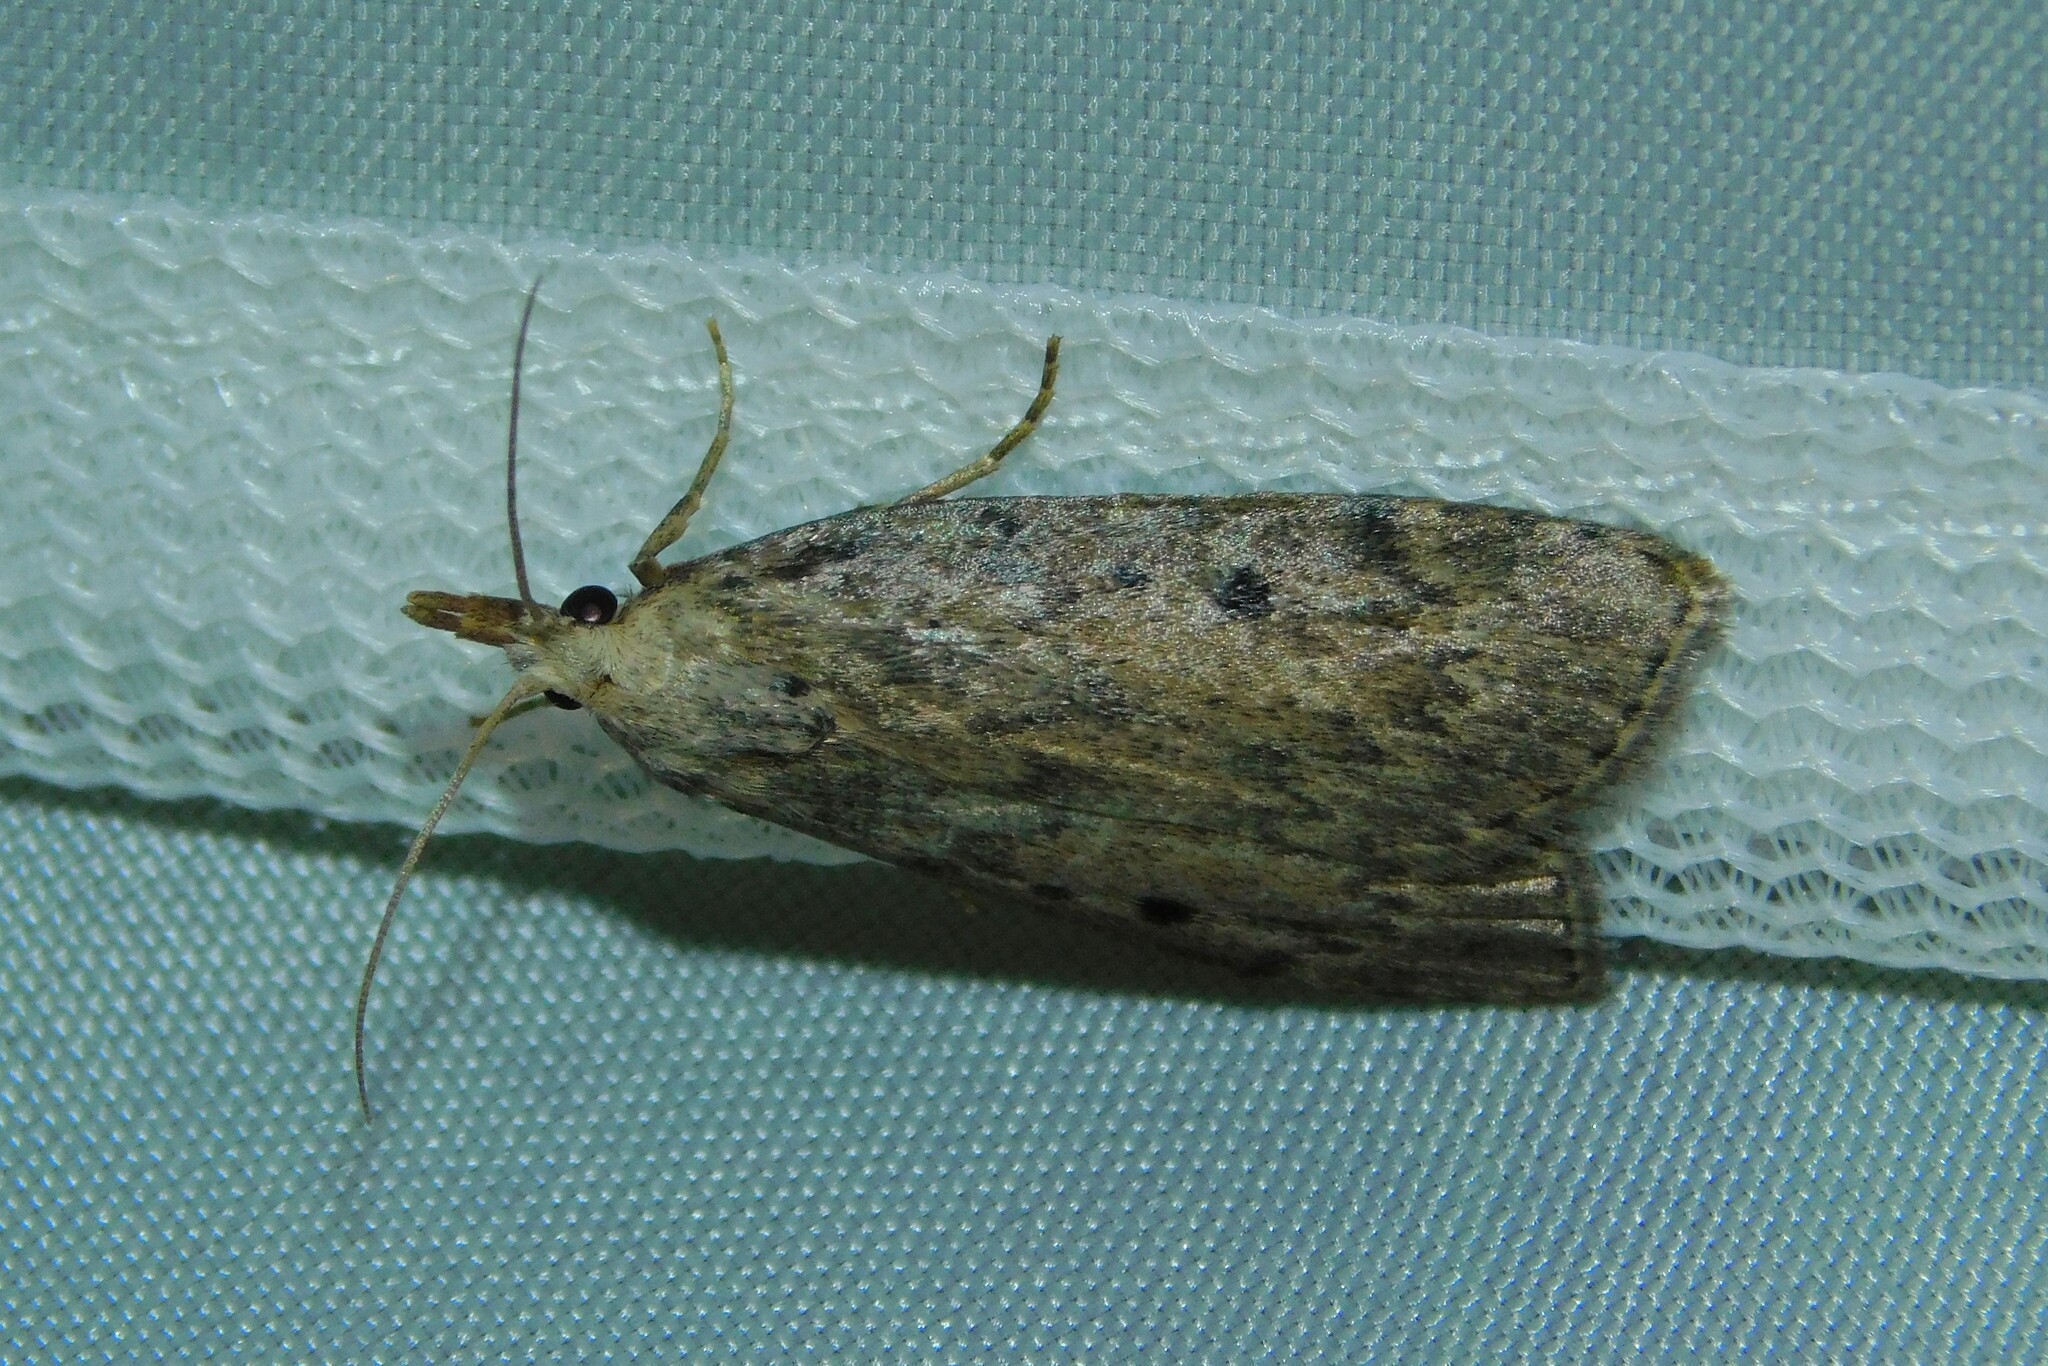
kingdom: Animalia
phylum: Arthropoda
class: Insecta
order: Lepidoptera
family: Pyralidae
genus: Aphomia
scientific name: Aphomia sociella
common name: Bee moth
